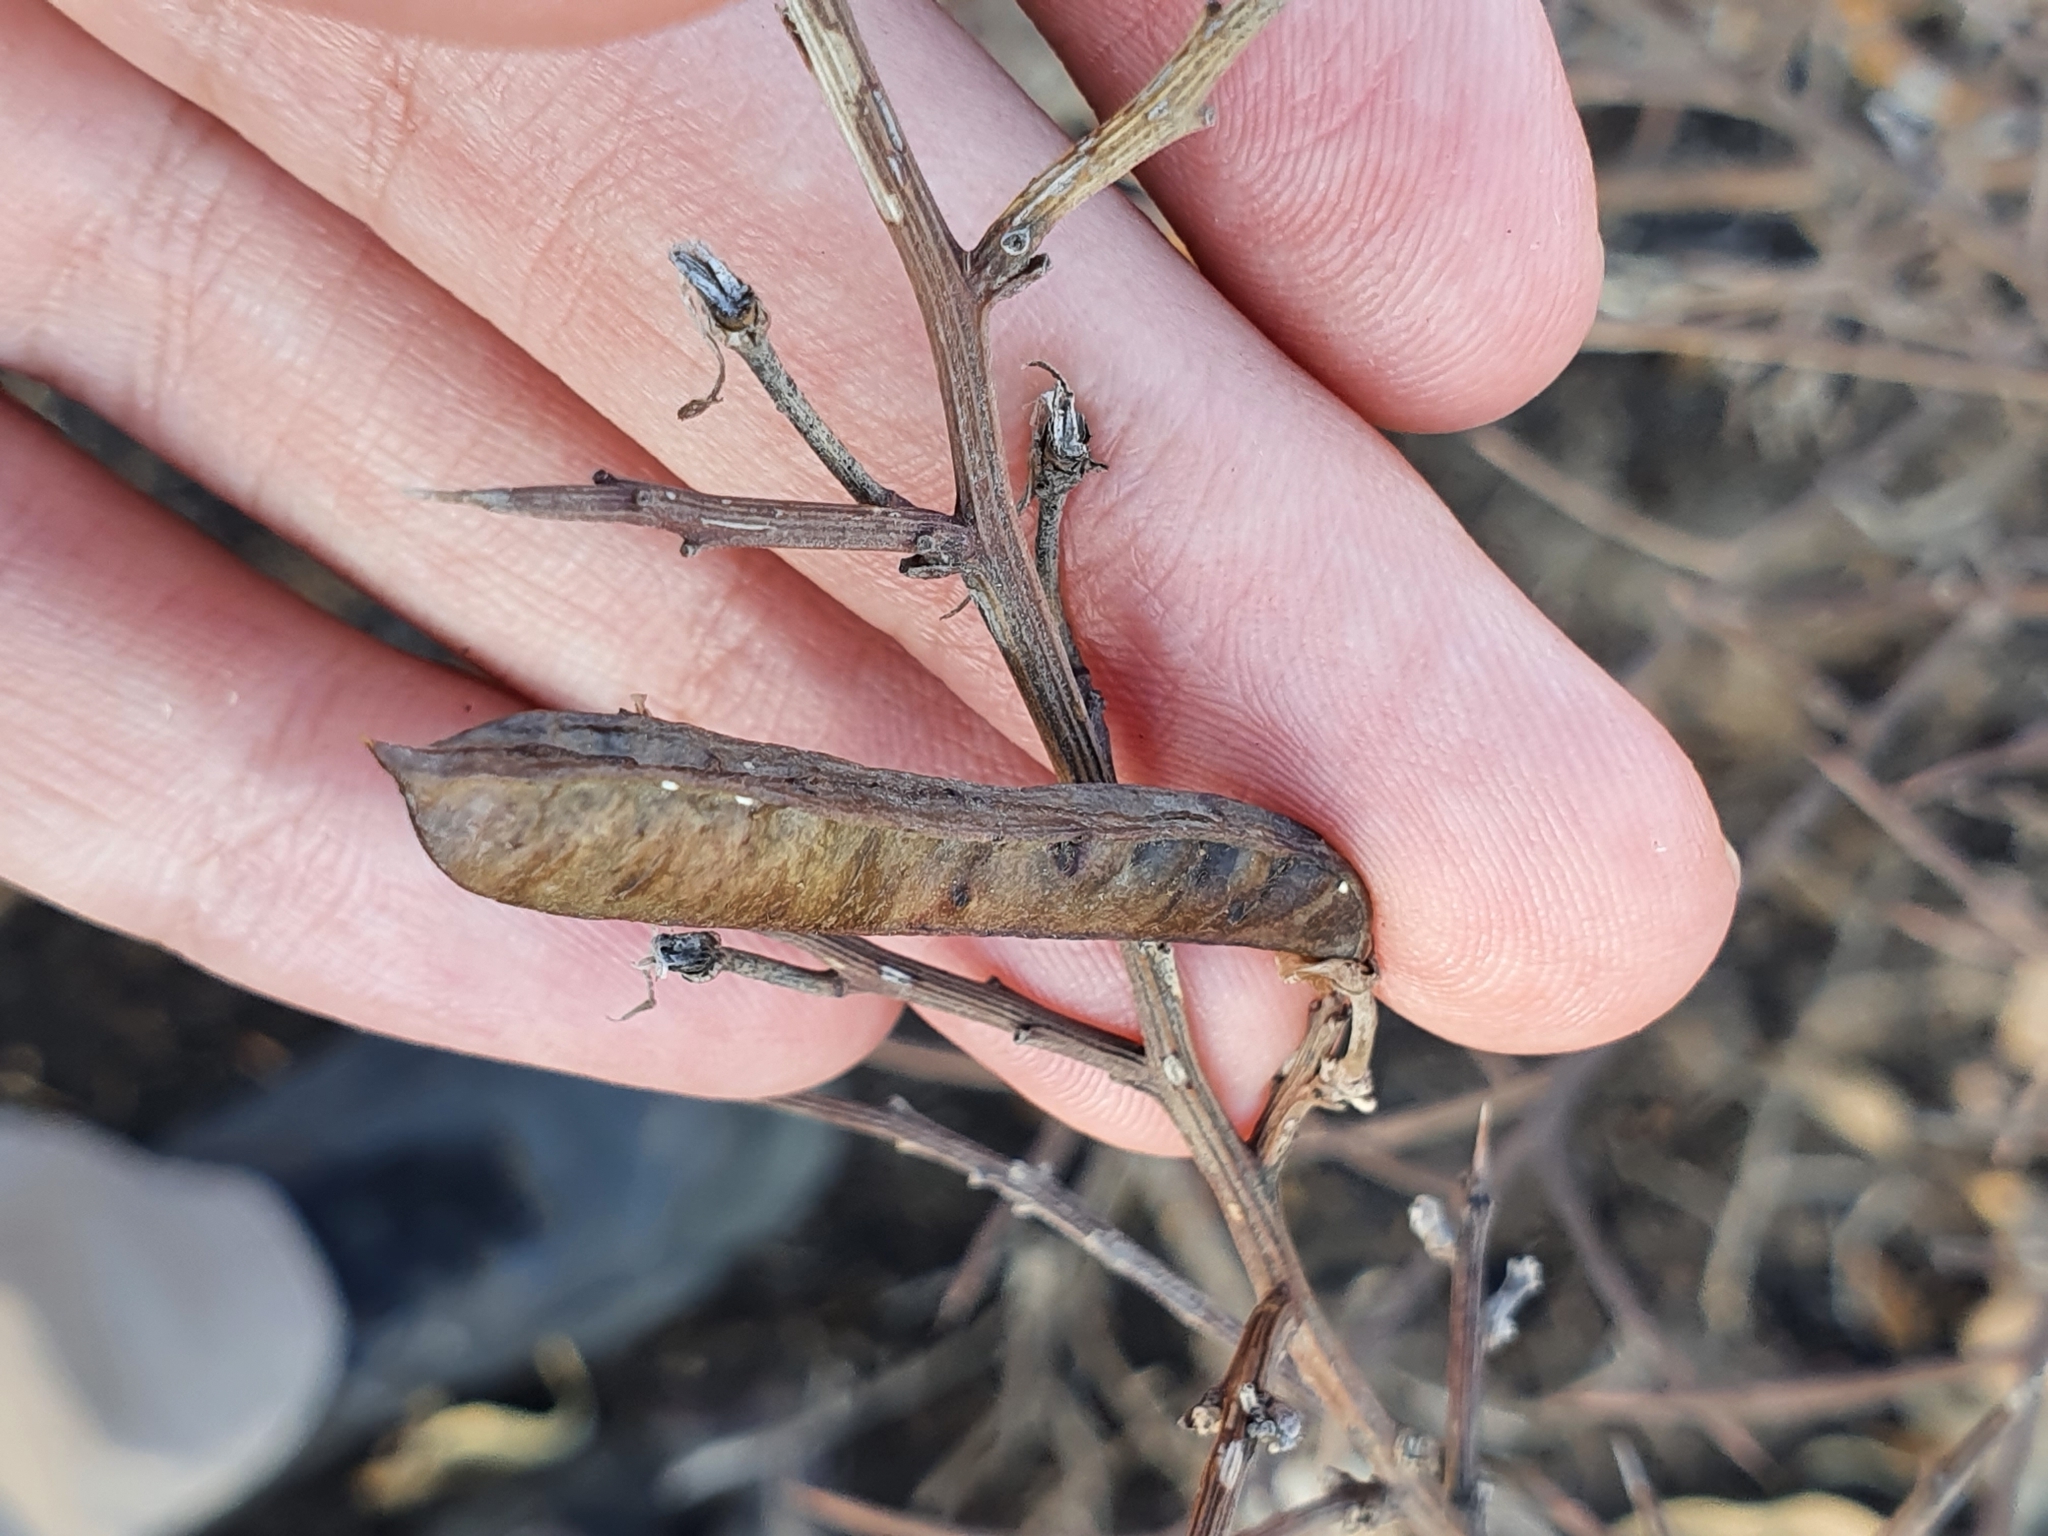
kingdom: Plantae
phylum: Tracheophyta
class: Magnoliopsida
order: Fabales
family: Fabaceae
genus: Calicotome
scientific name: Calicotome spinosa
